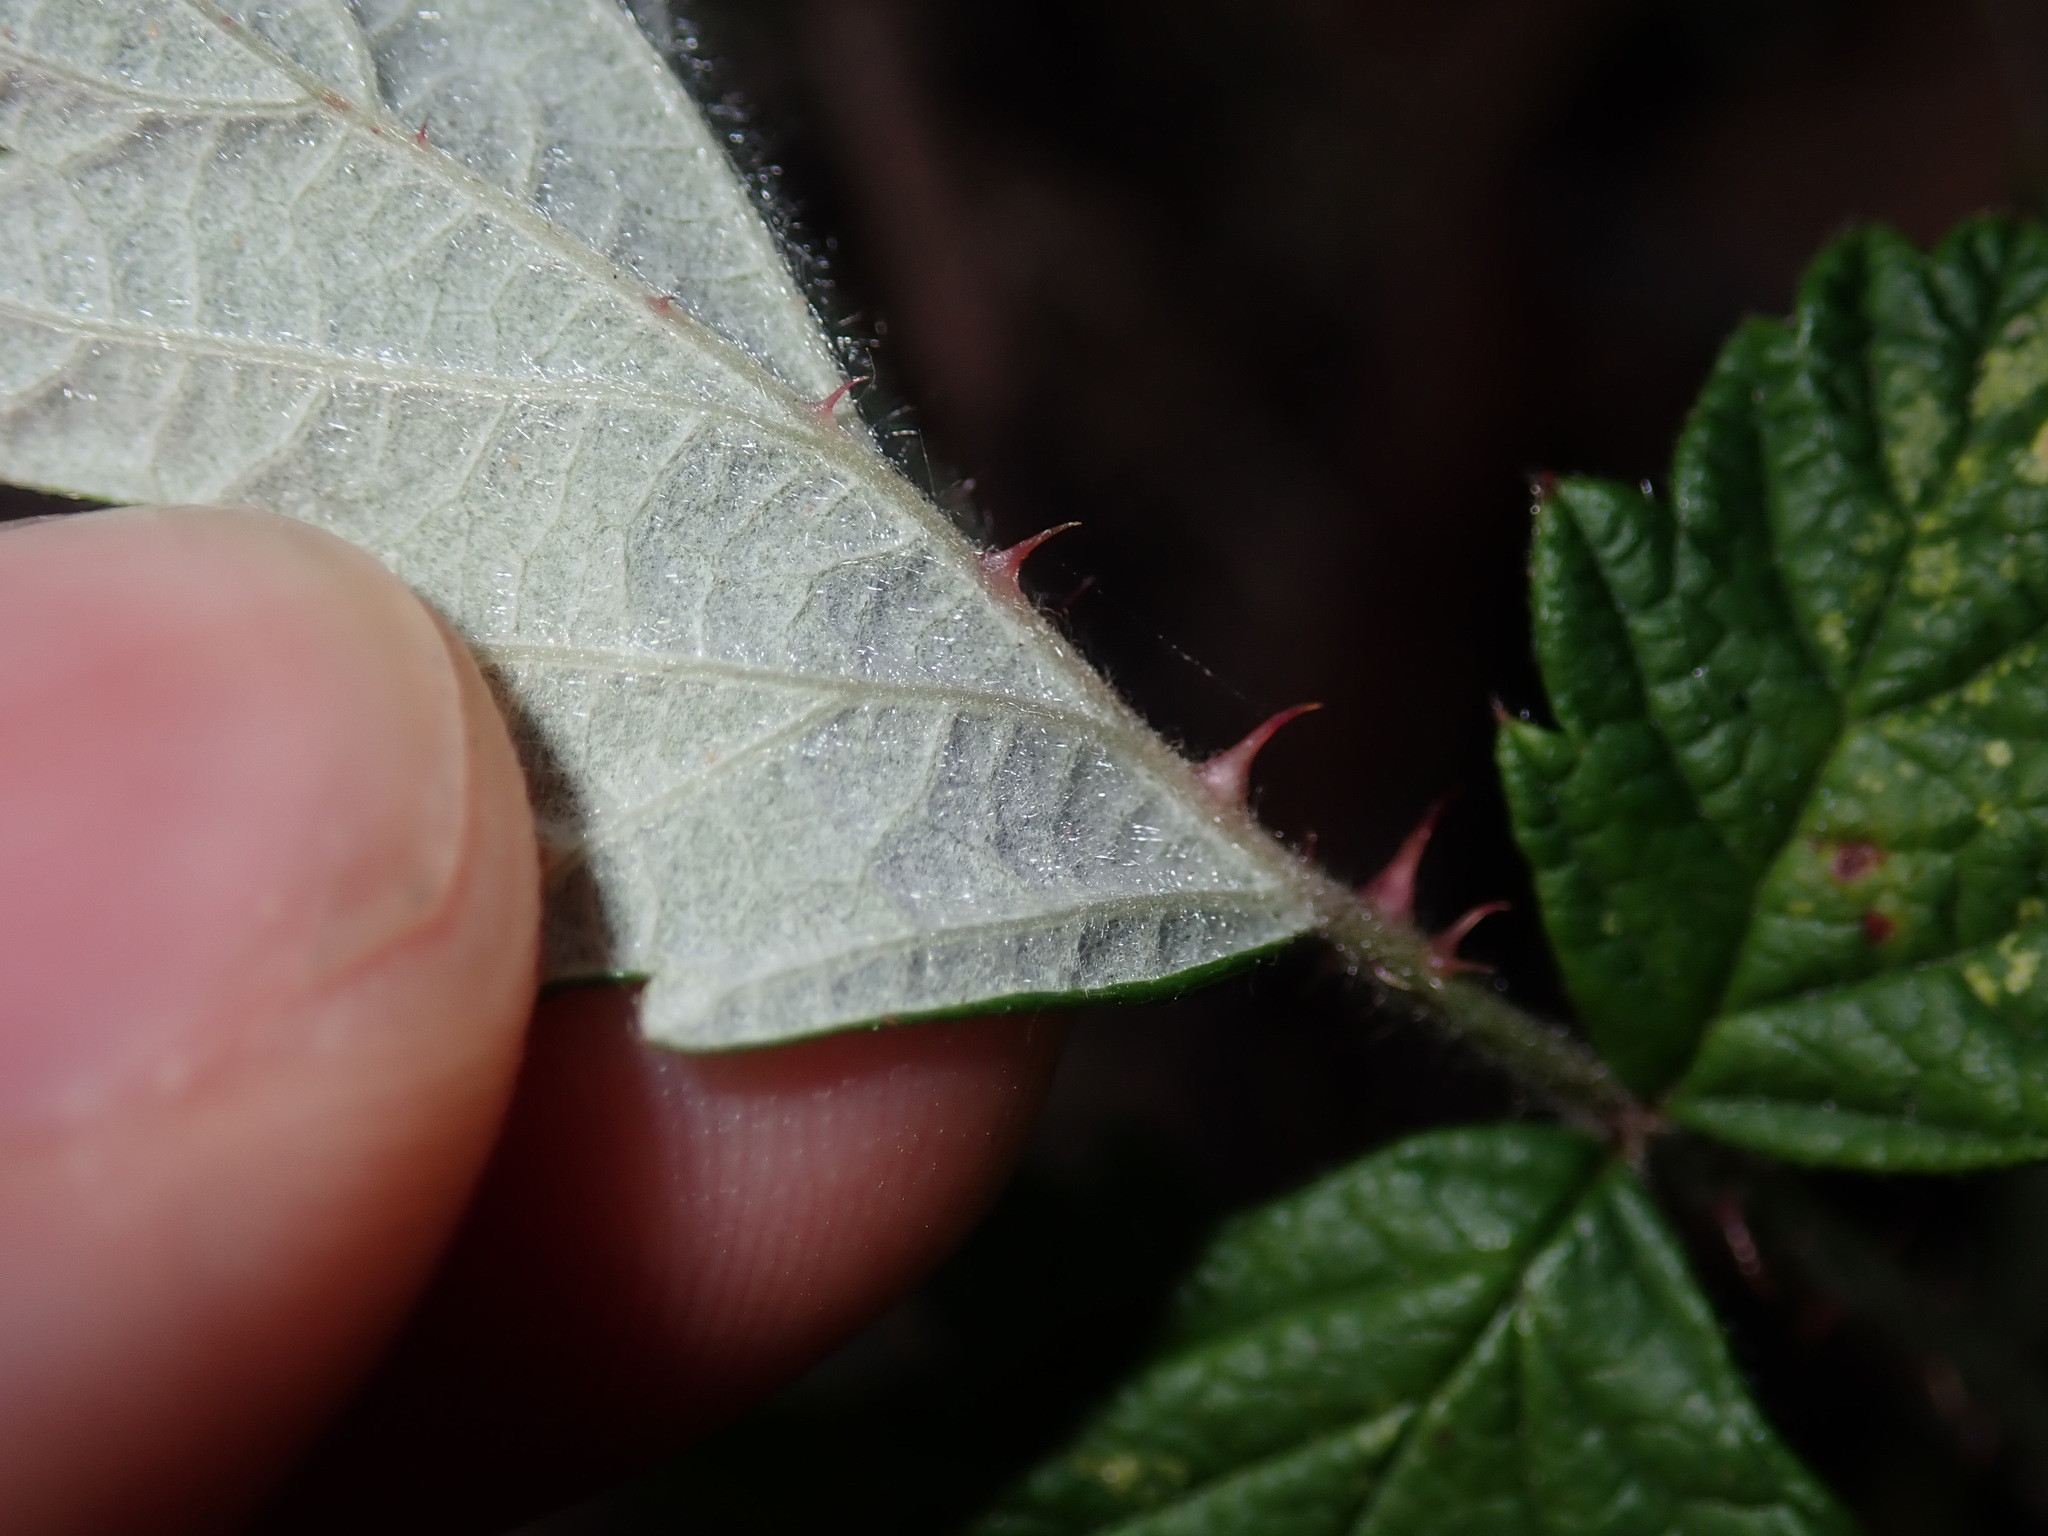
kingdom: Plantae
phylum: Tracheophyta
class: Magnoliopsida
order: Rosales
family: Rosaceae
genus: Rubus
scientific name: Rubus parvifolius
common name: Threeleaf blackberry
